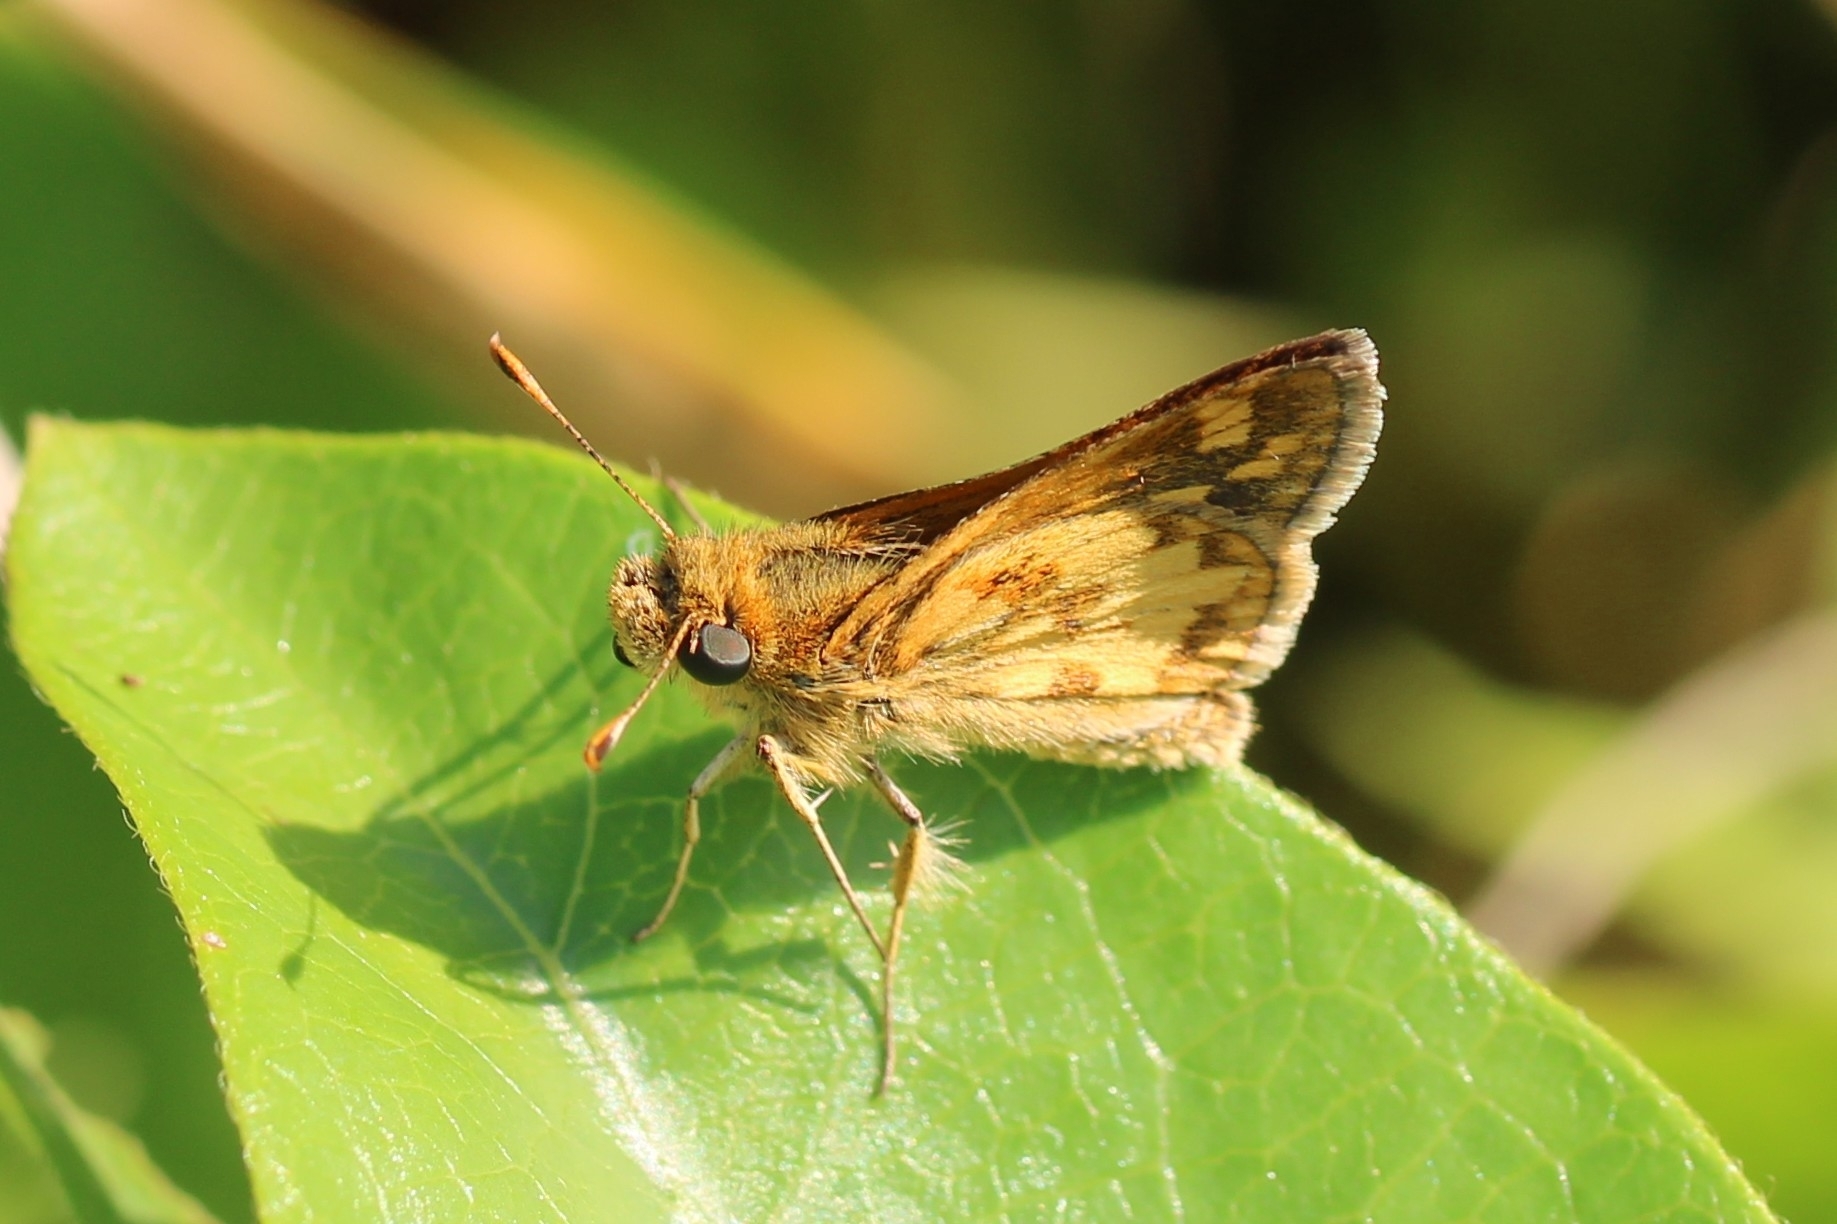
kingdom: Animalia
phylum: Arthropoda
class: Insecta
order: Lepidoptera
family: Hesperiidae
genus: Polites
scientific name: Polites coras
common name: Peck's skipper
